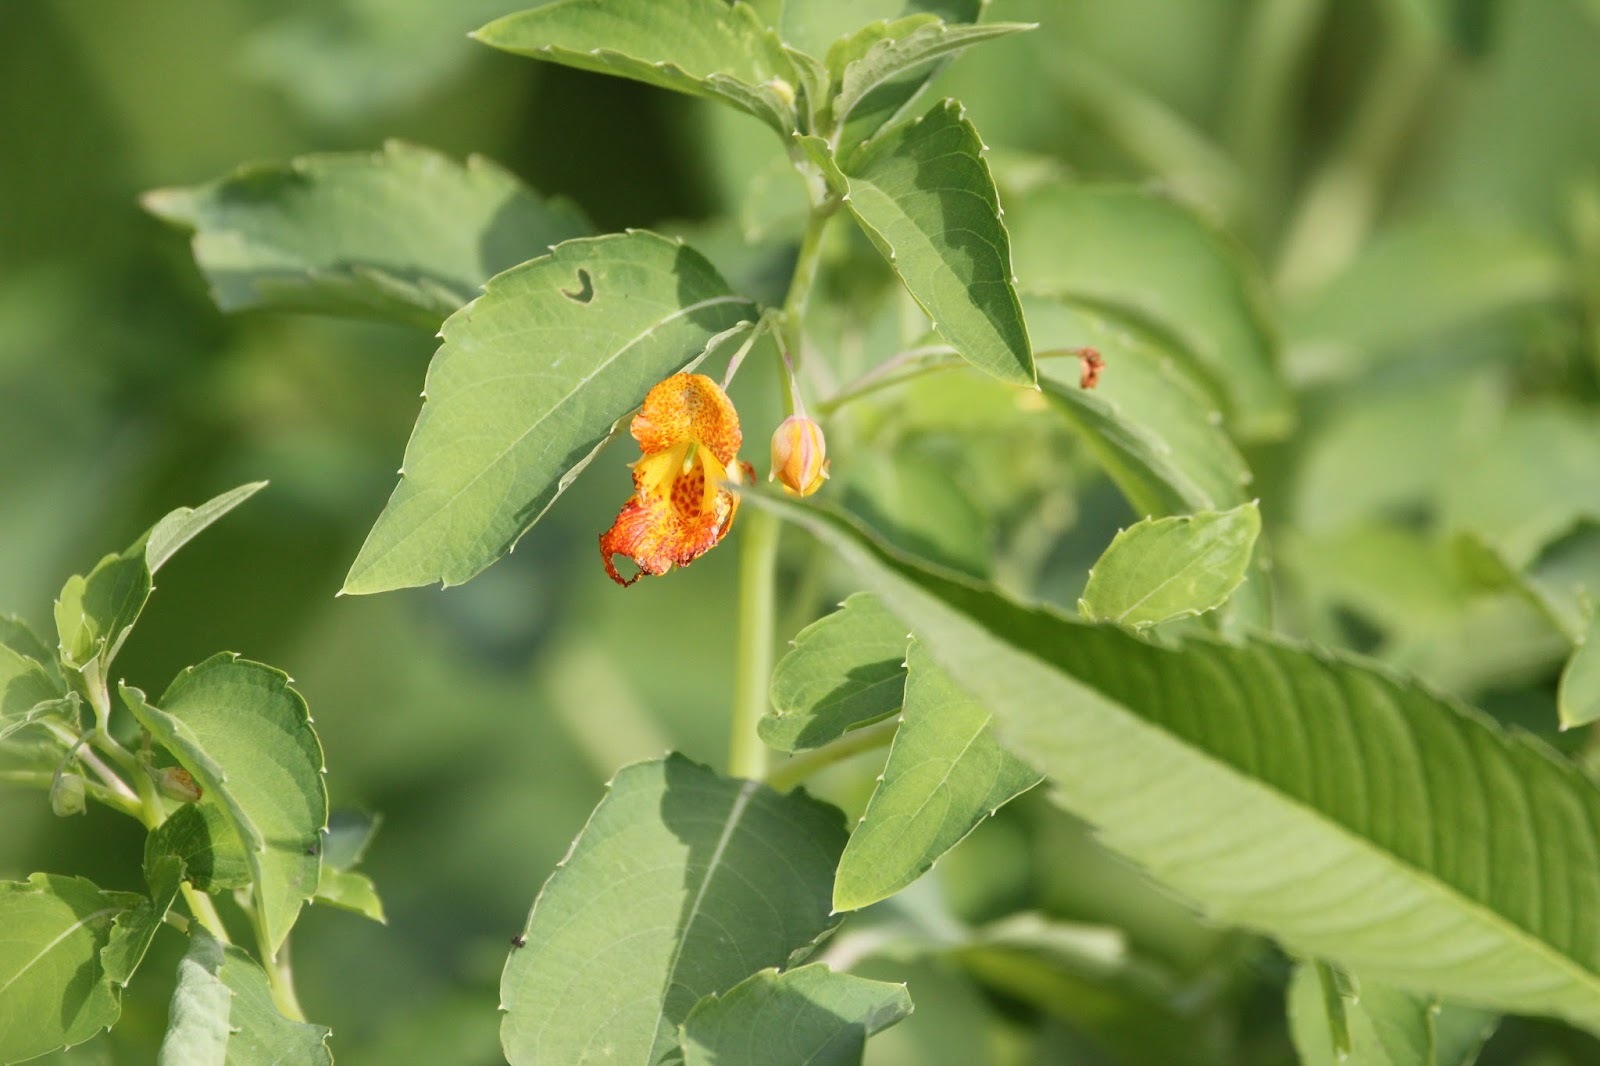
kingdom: Plantae
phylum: Tracheophyta
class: Magnoliopsida
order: Ericales
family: Balsaminaceae
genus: Impatiens
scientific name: Impatiens capensis
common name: Orange balsam
